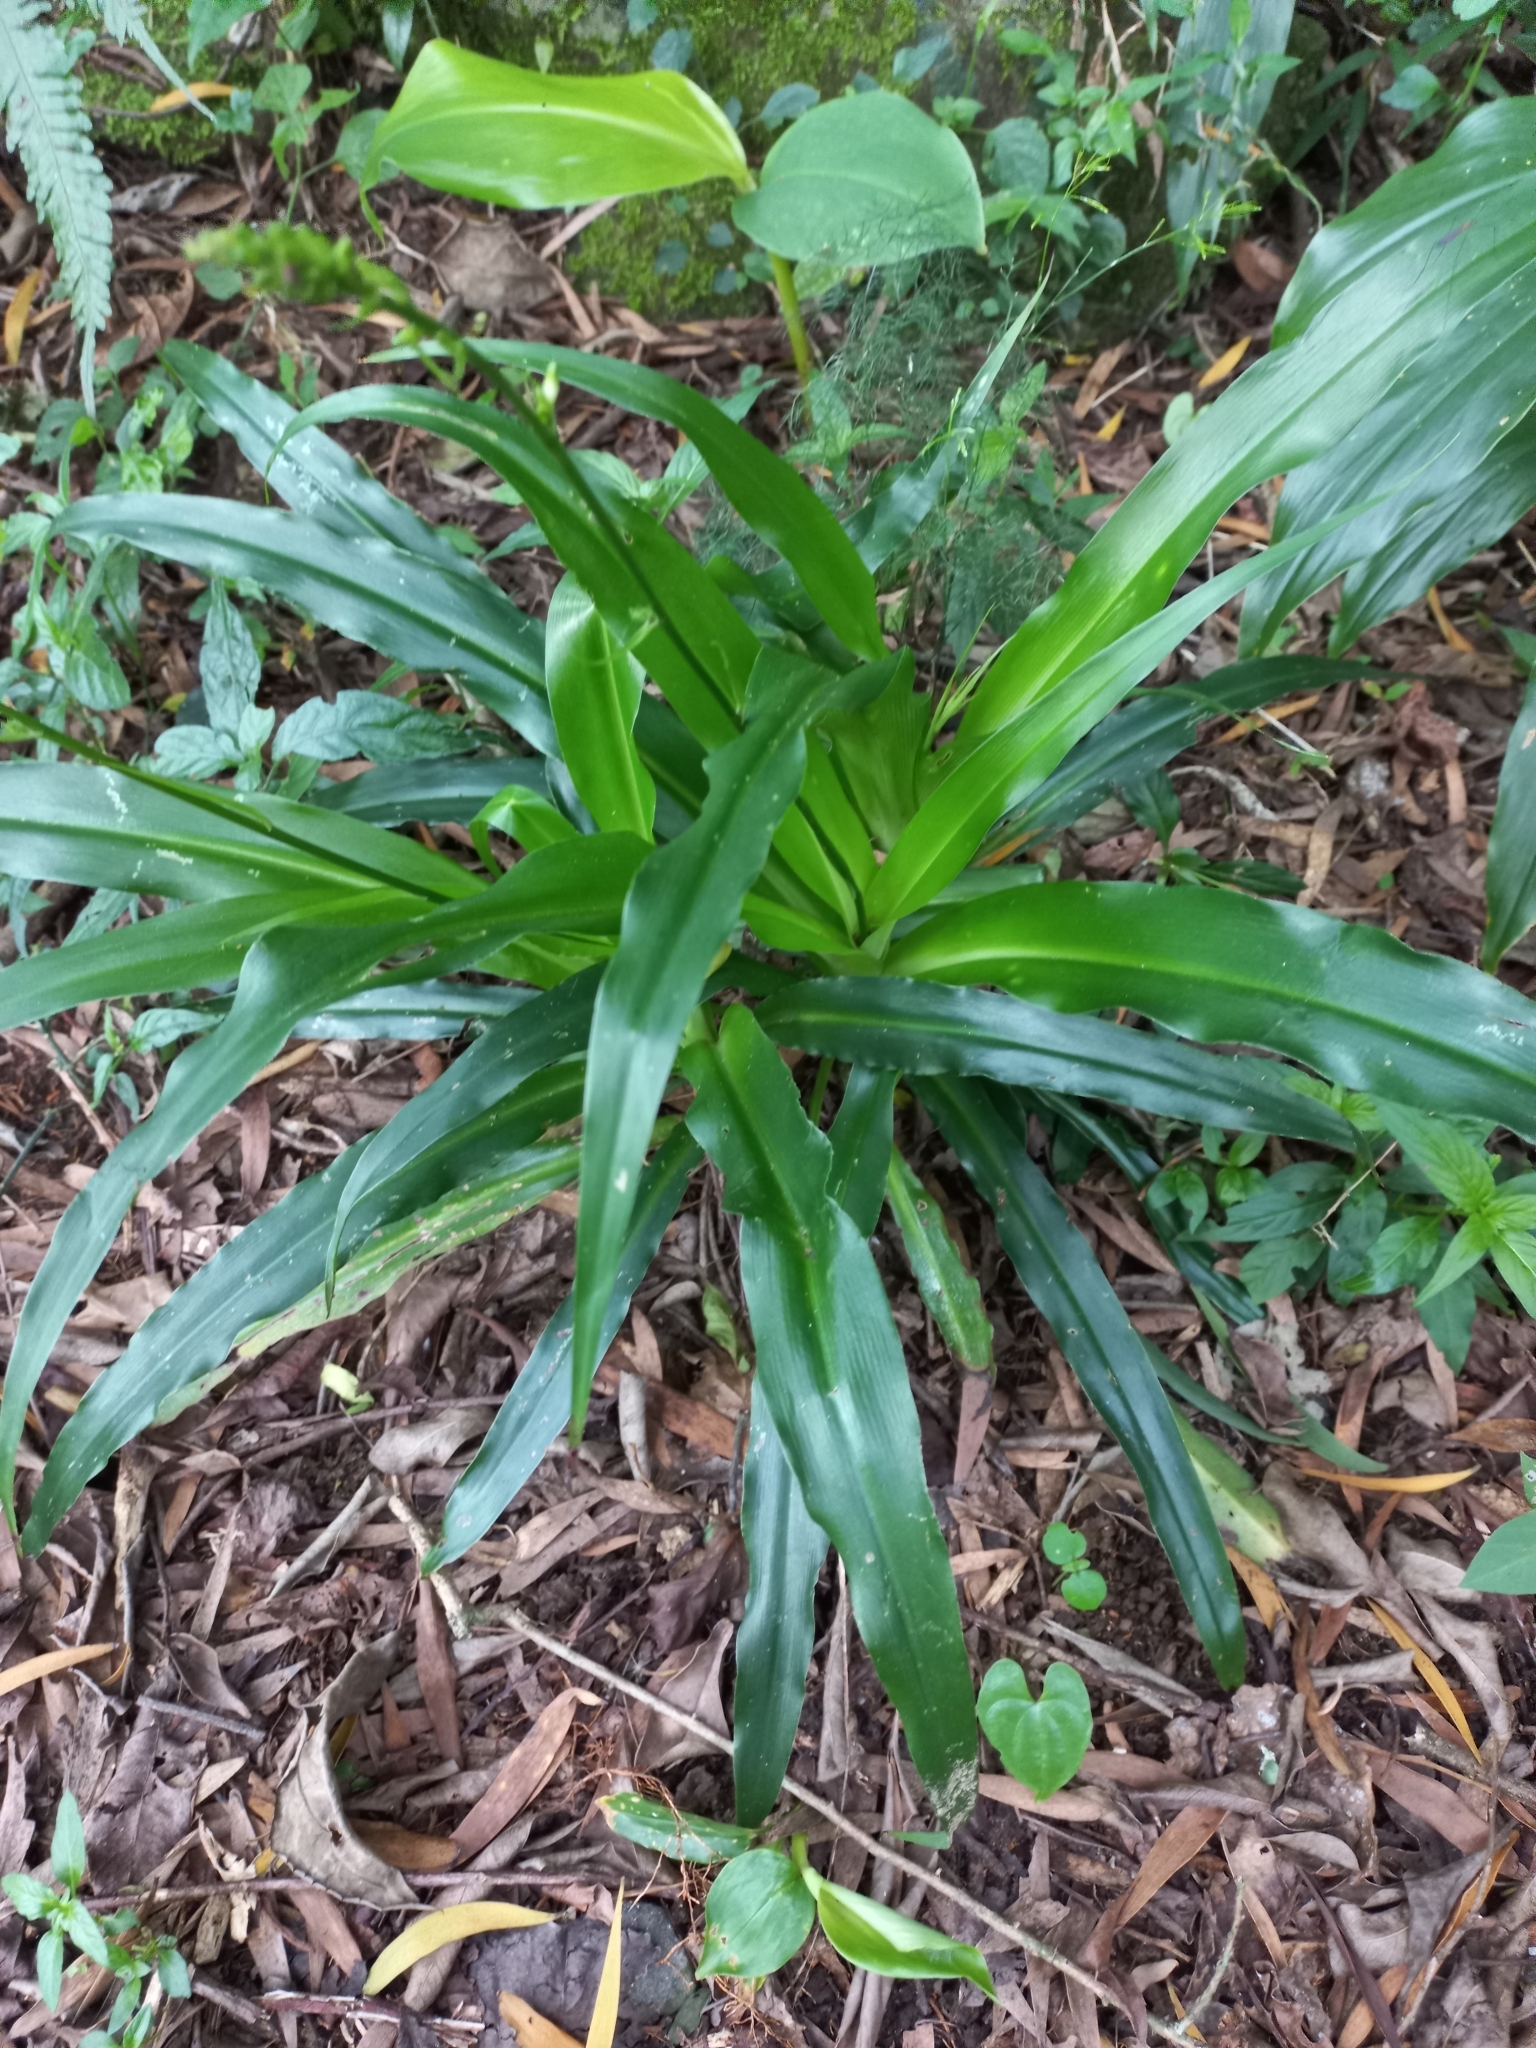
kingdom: Plantae
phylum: Tracheophyta
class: Liliopsida
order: Asparagales
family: Asparagaceae
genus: Chlorophytum
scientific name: Chlorophytum comosum
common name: Spider plant
